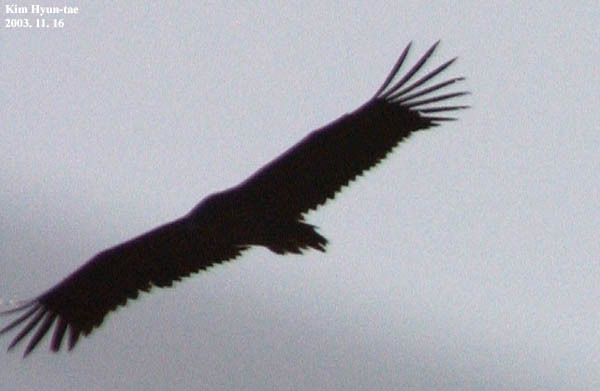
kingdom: Animalia
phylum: Chordata
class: Aves
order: Accipitriformes
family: Accipitridae
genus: Aegypius
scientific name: Aegypius monachus
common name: Cinereous vulture
